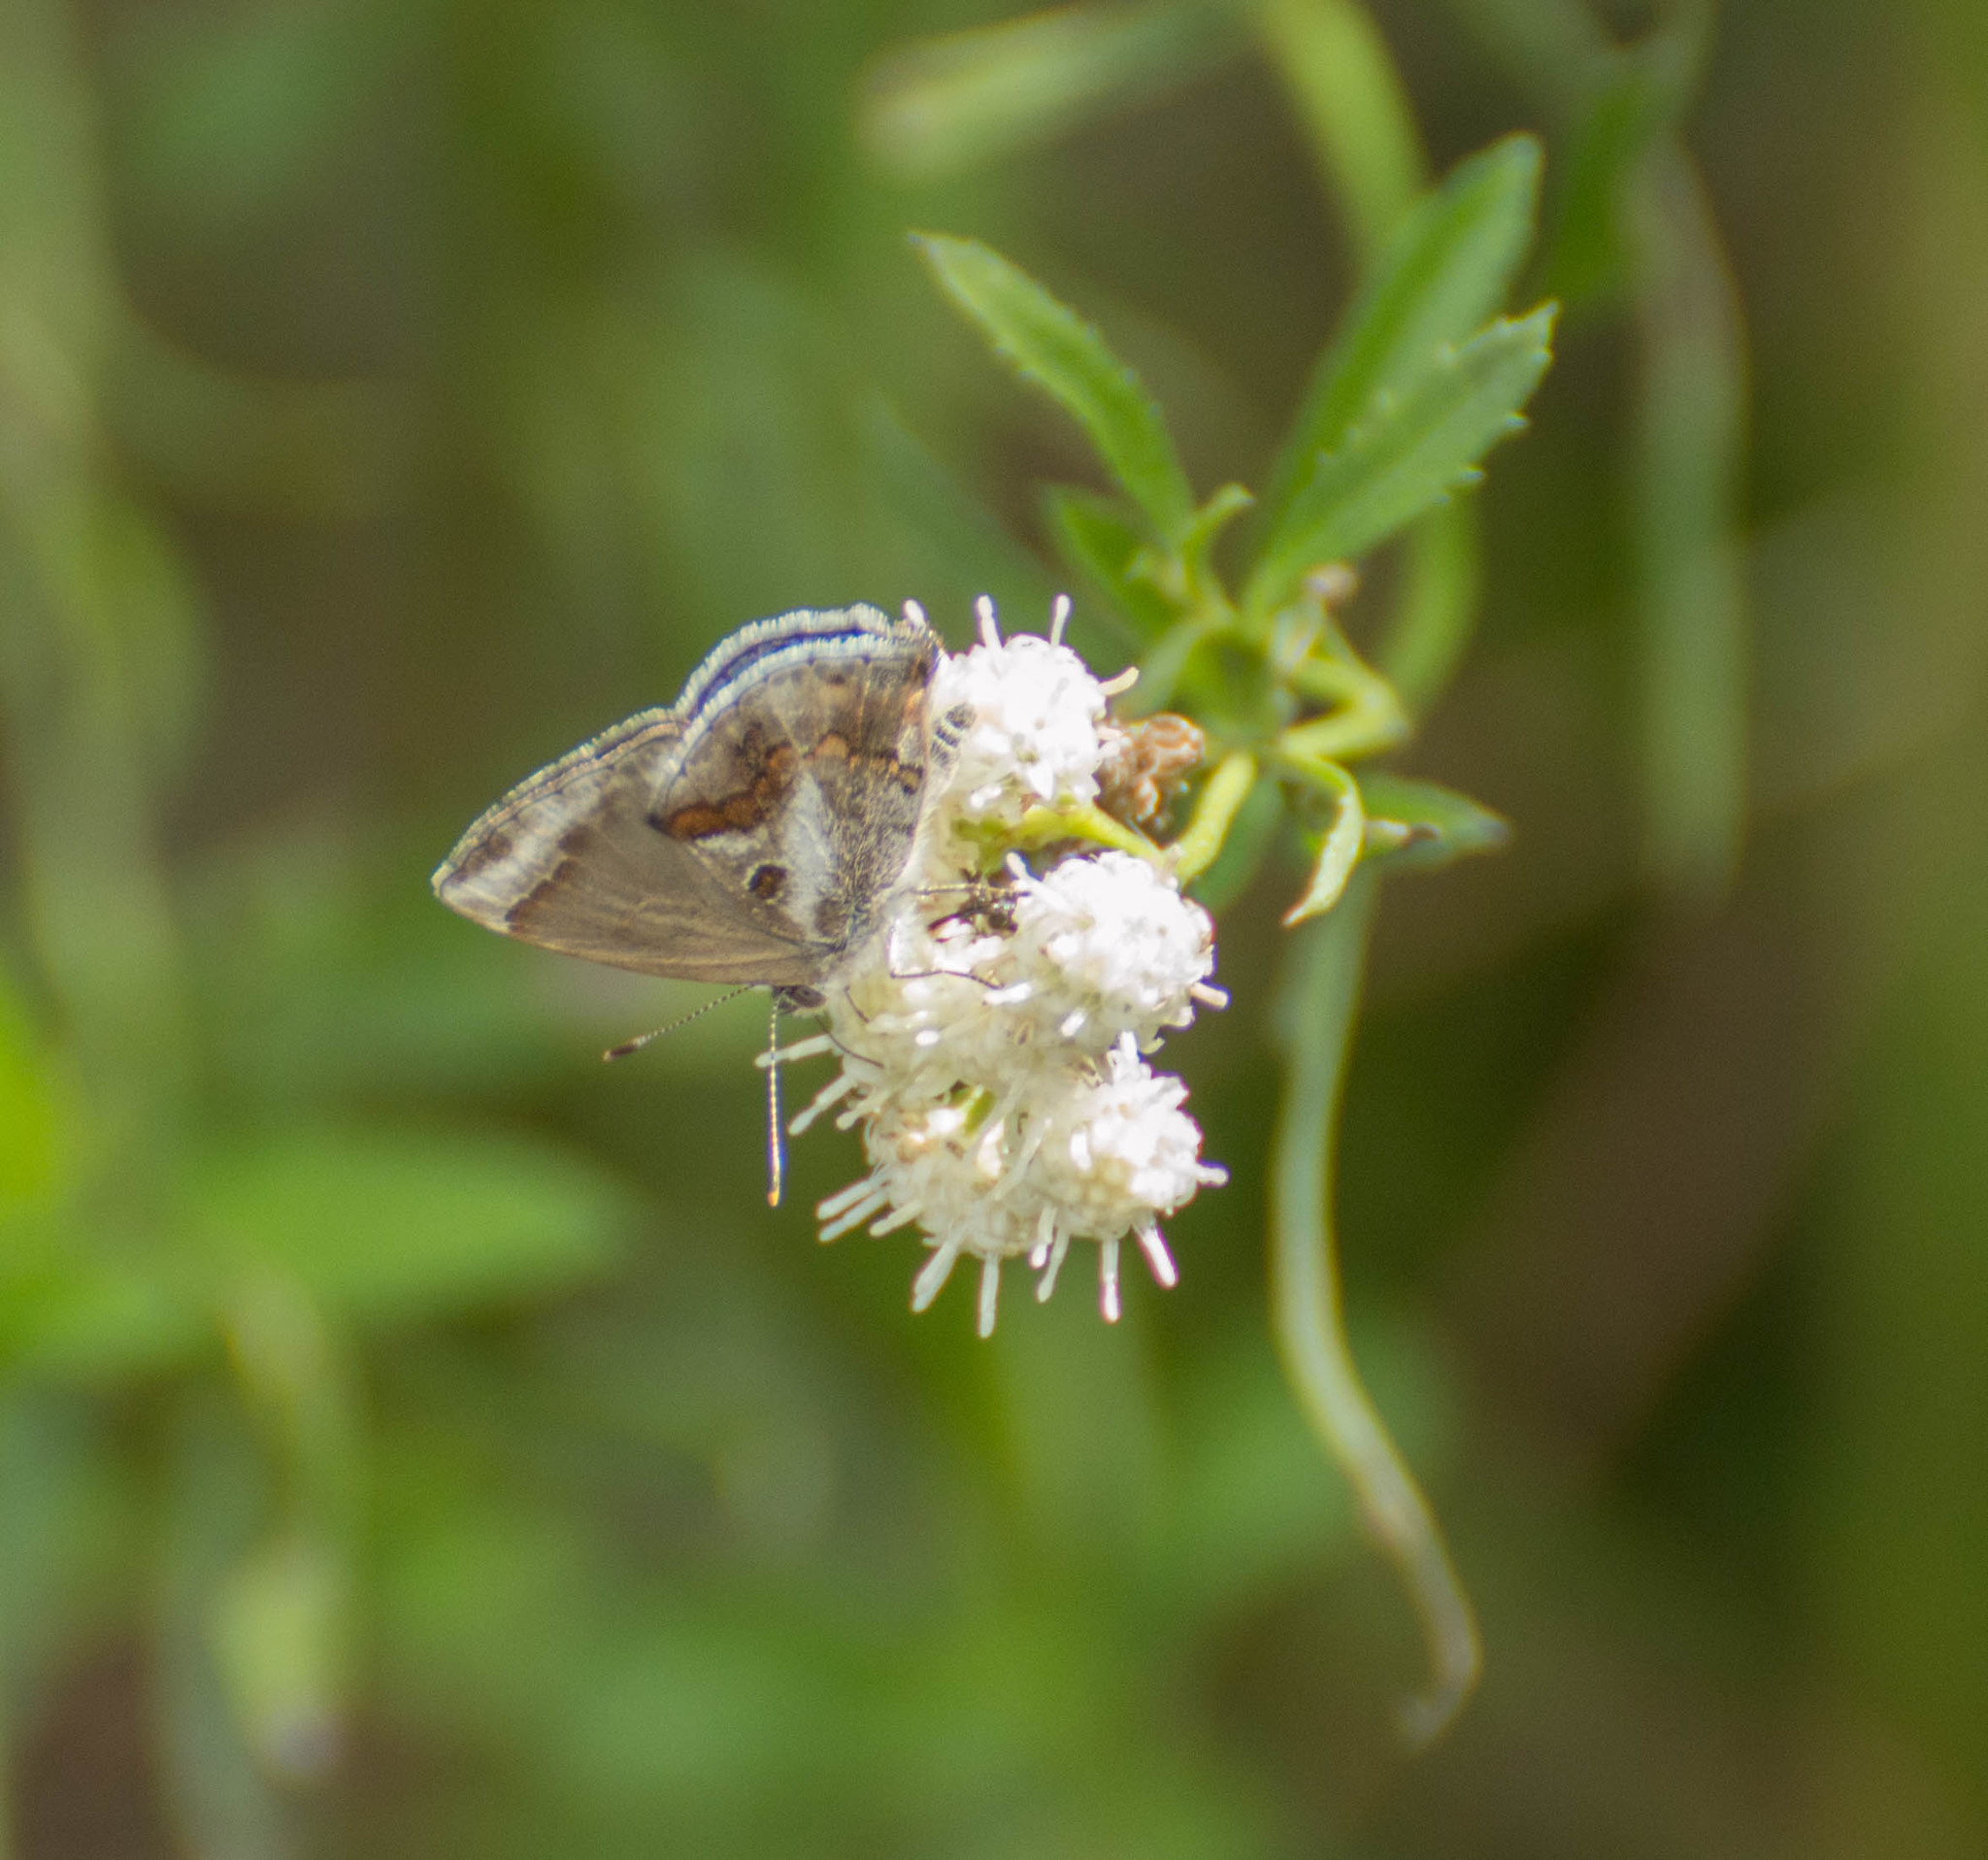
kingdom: Animalia
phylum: Arthropoda
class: Insecta
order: Lepidoptera
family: Lycaenidae
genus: Strymon
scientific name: Strymon bazochii
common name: Lantana scrub-hairstreak
